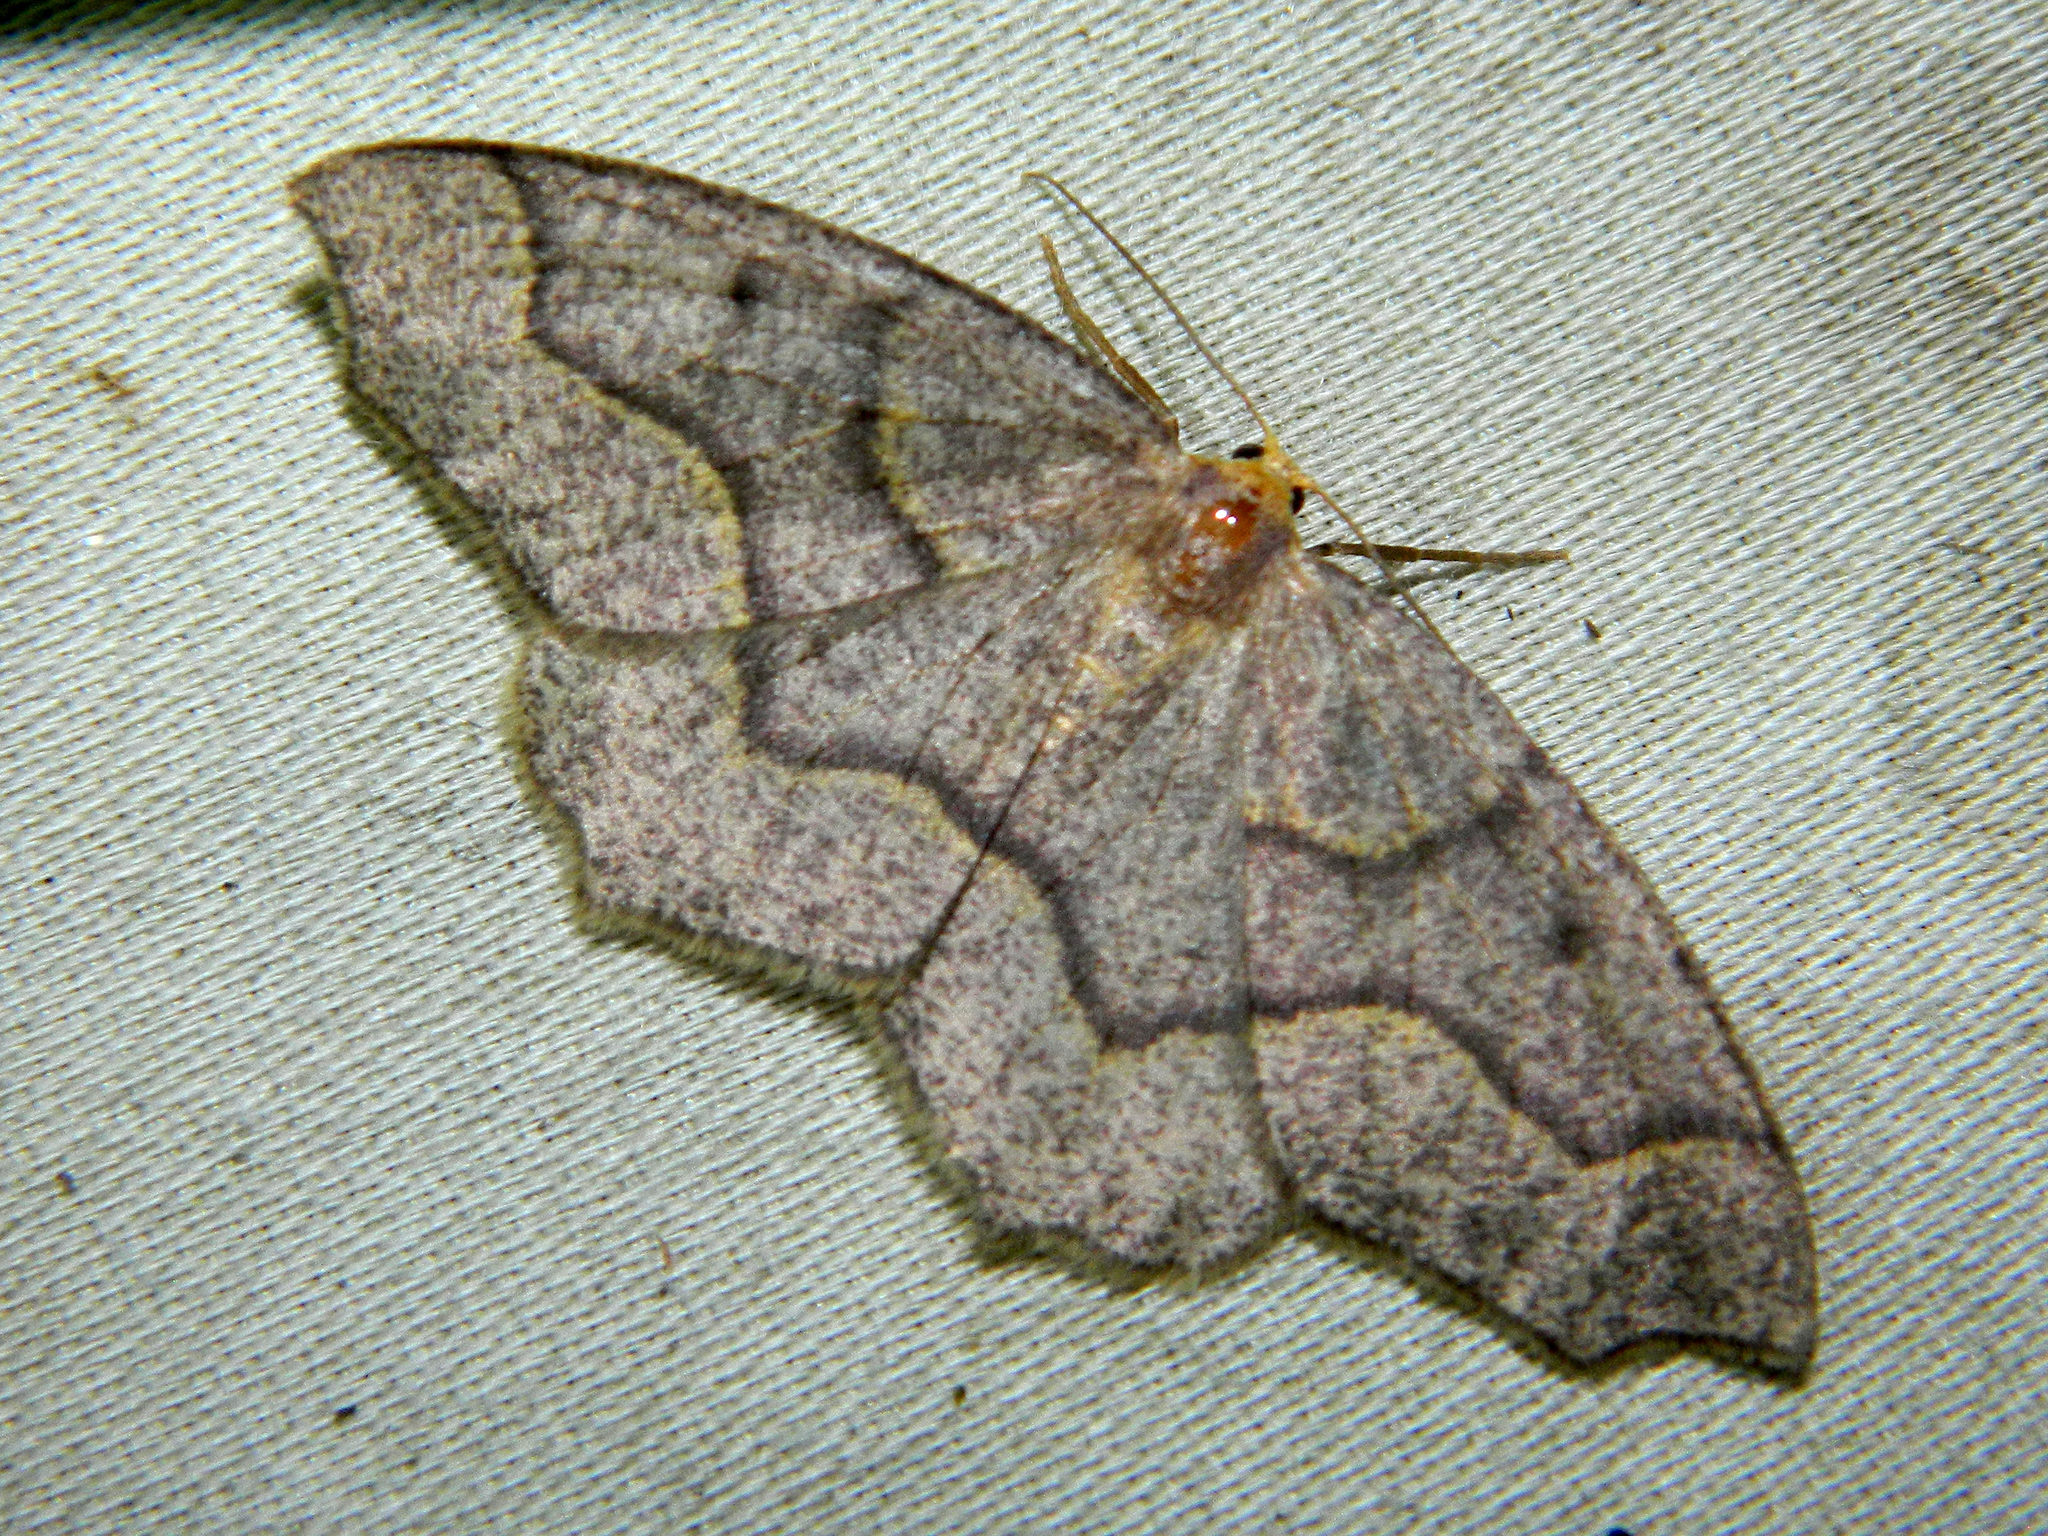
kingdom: Animalia
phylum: Arthropoda
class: Insecta
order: Lepidoptera
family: Geometridae
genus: Lambdina
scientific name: Lambdina fiscellaria
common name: Hemlock looper
